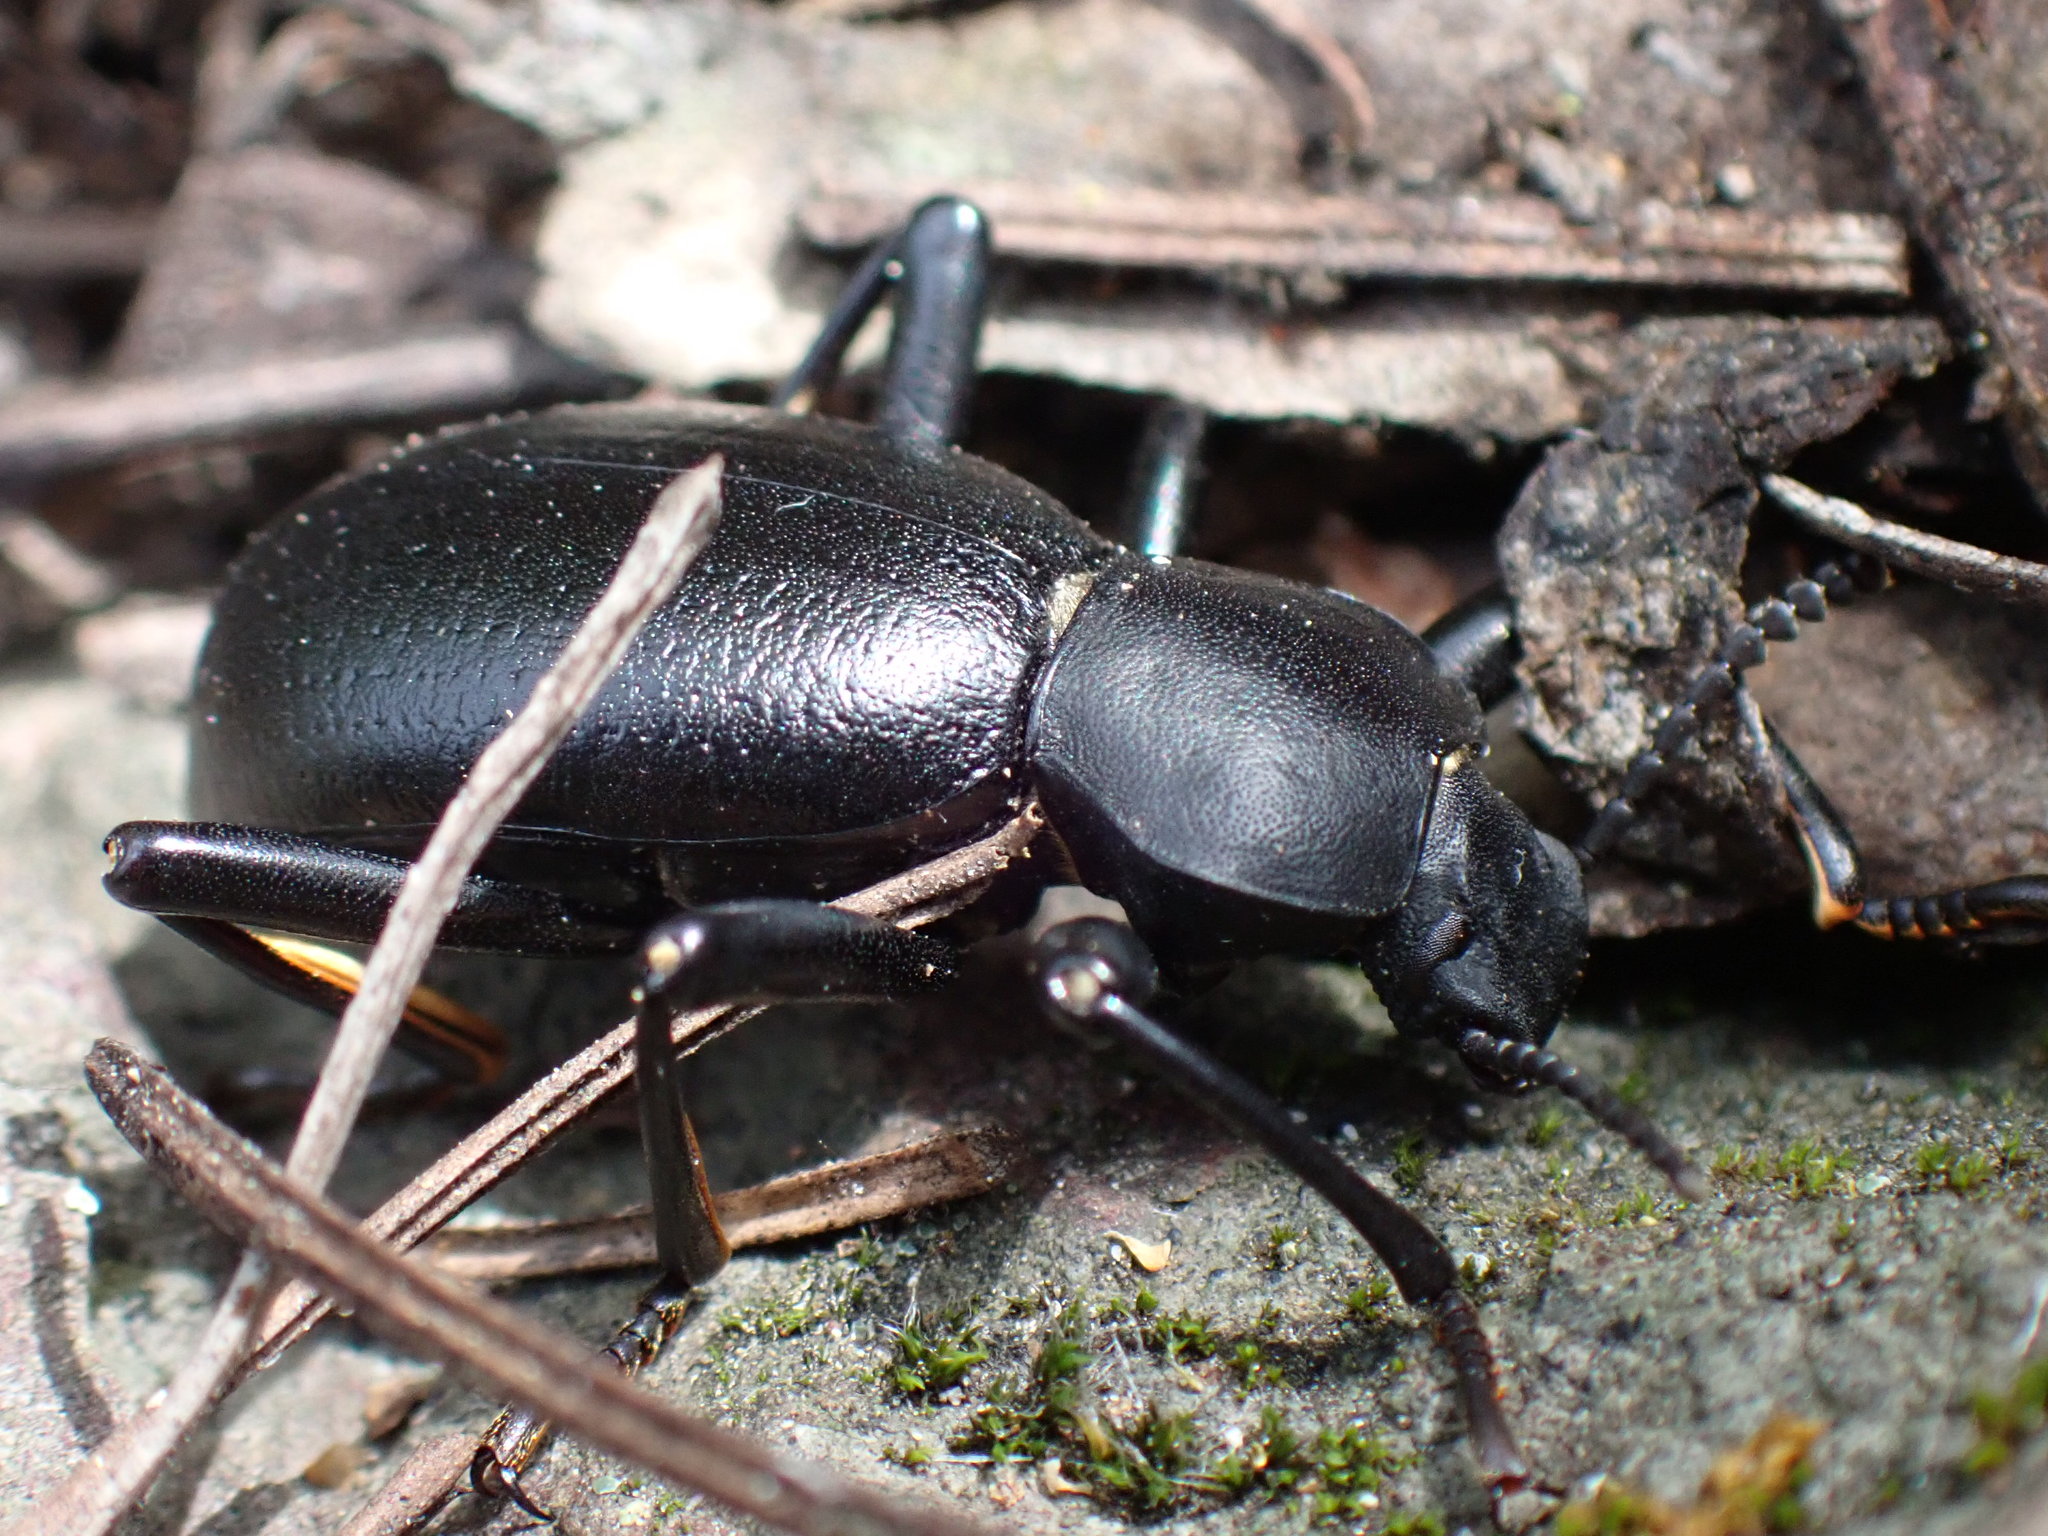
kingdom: Animalia
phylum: Arthropoda
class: Insecta
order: Coleoptera
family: Tenebrionidae
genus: Coelocnemis
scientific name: Coelocnemis dilaticollis
